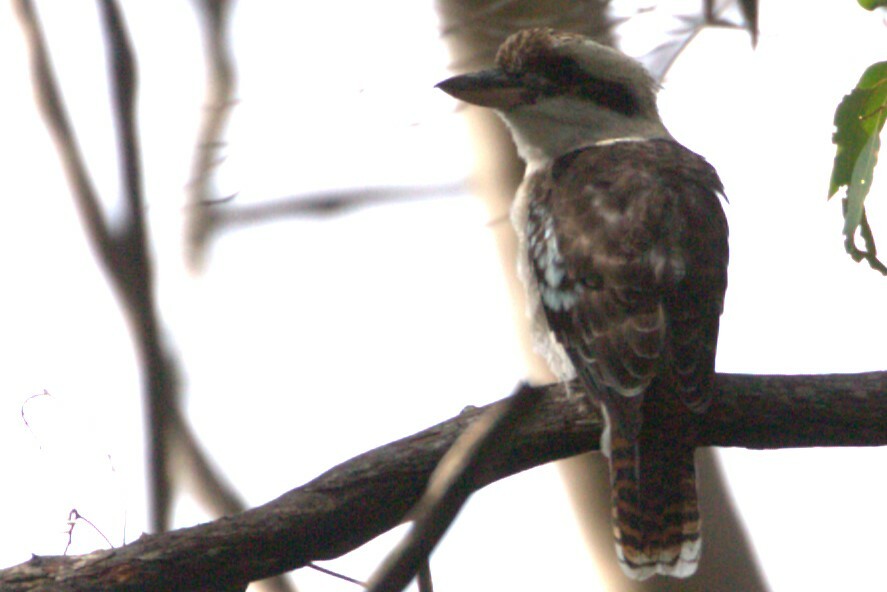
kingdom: Animalia
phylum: Chordata
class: Aves
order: Coraciiformes
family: Alcedinidae
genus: Dacelo
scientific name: Dacelo novaeguineae
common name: Laughing kookaburra
